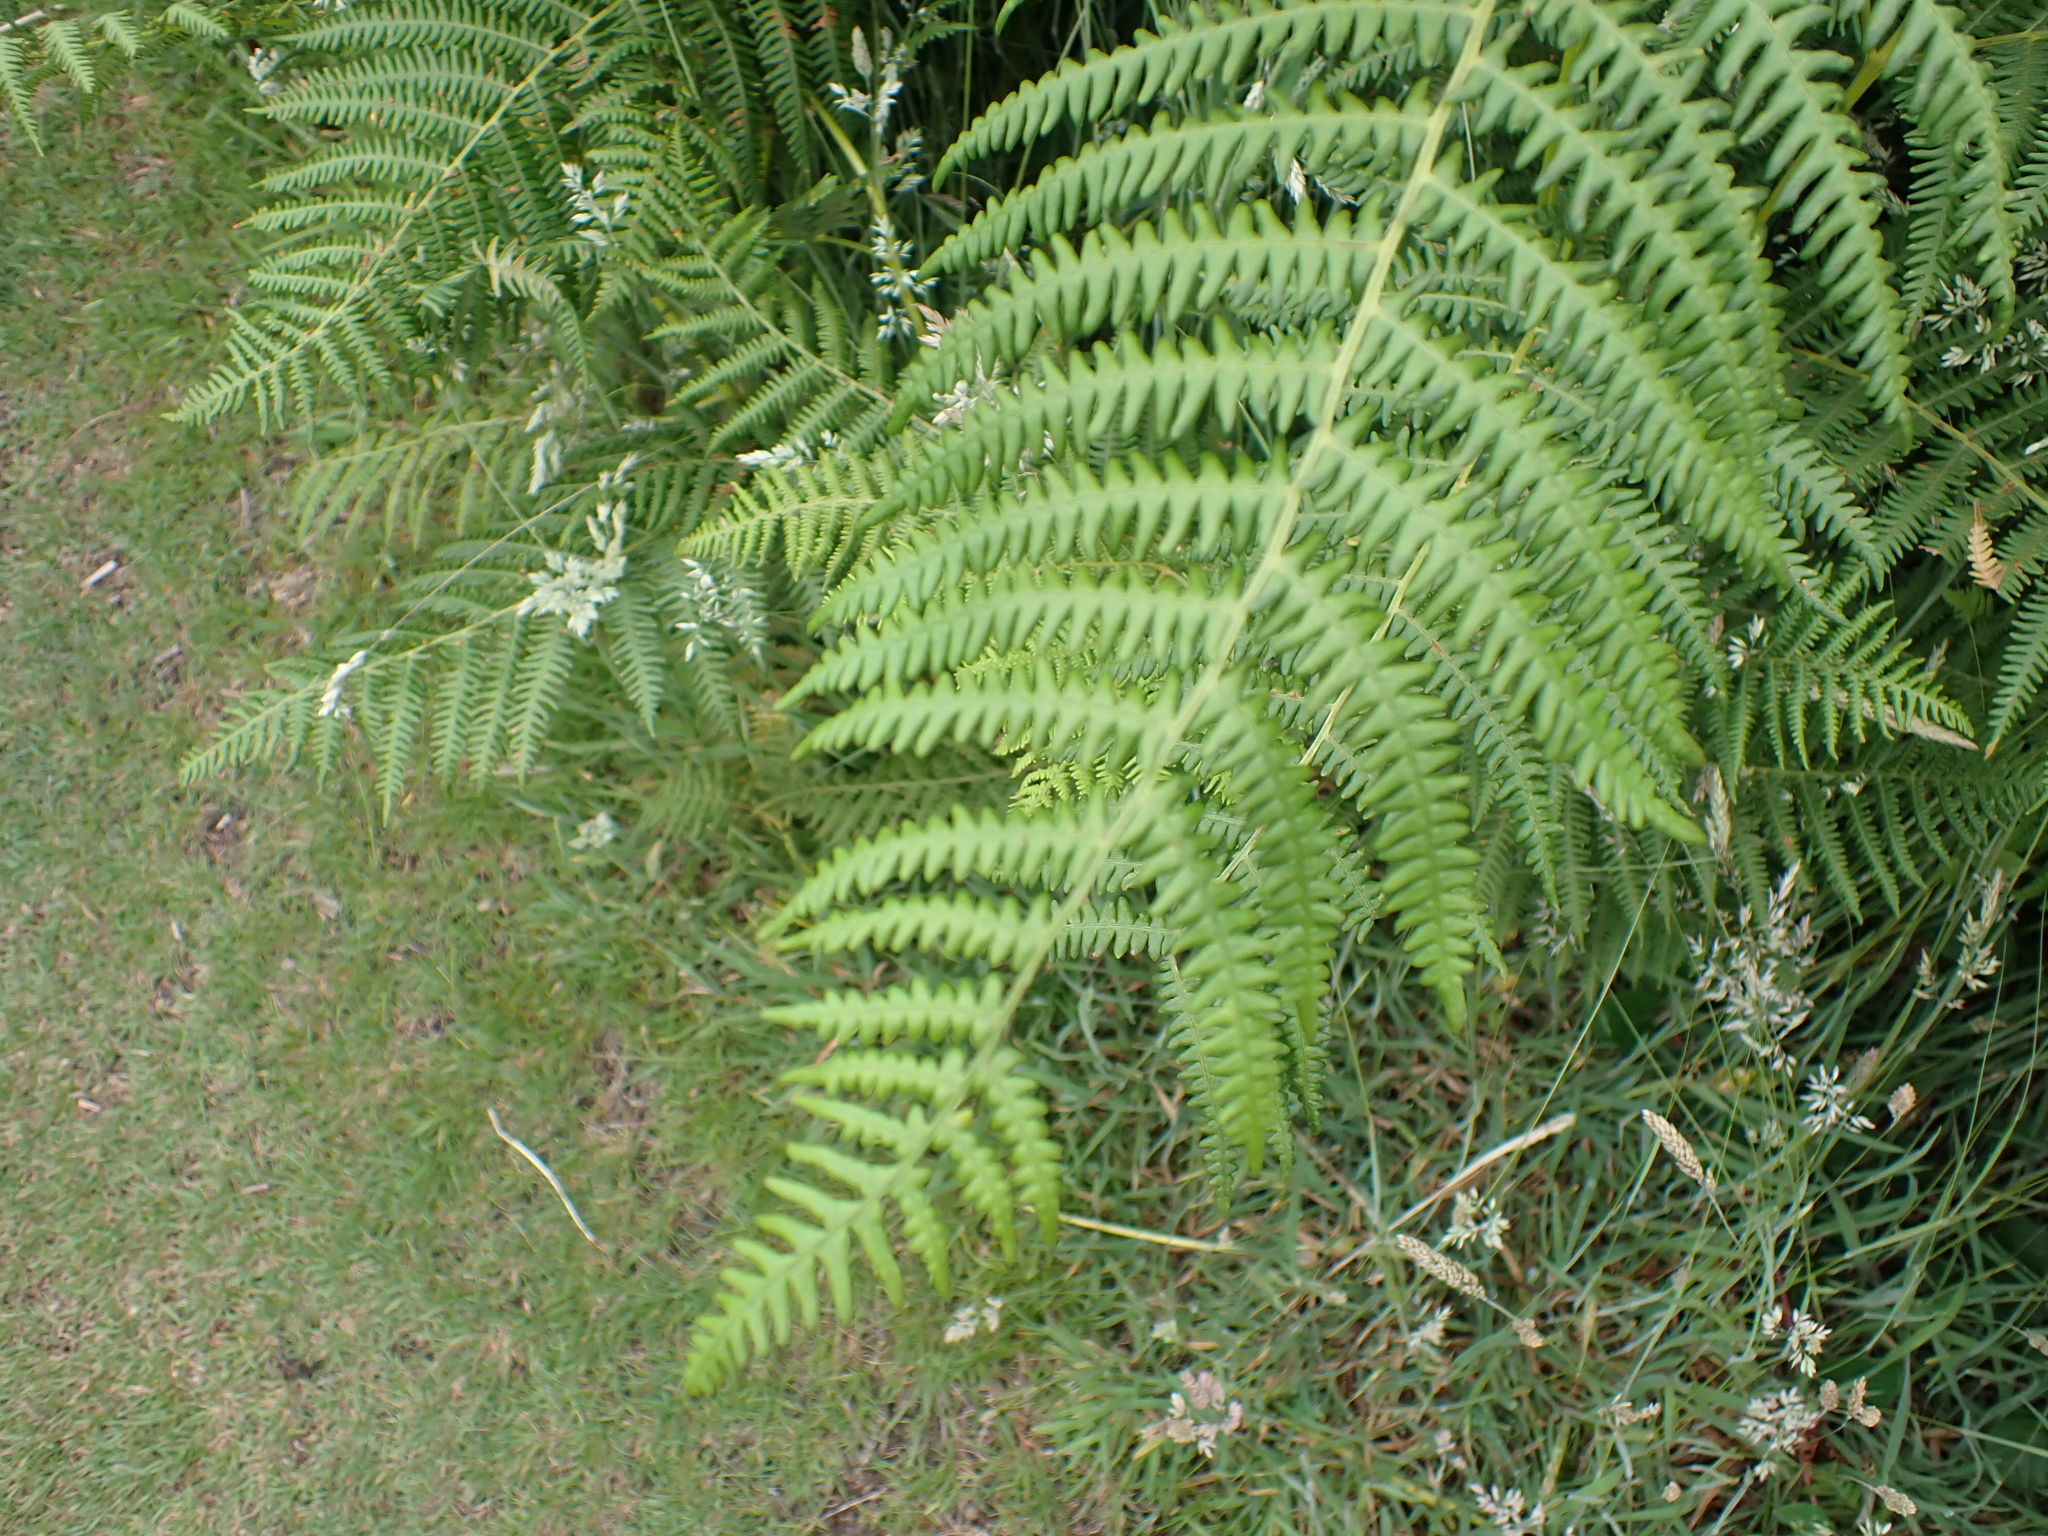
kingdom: Plantae
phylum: Tracheophyta
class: Polypodiopsida
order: Polypodiales
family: Dennstaedtiaceae
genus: Pteridium
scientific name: Pteridium aquilinum
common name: Bracken
